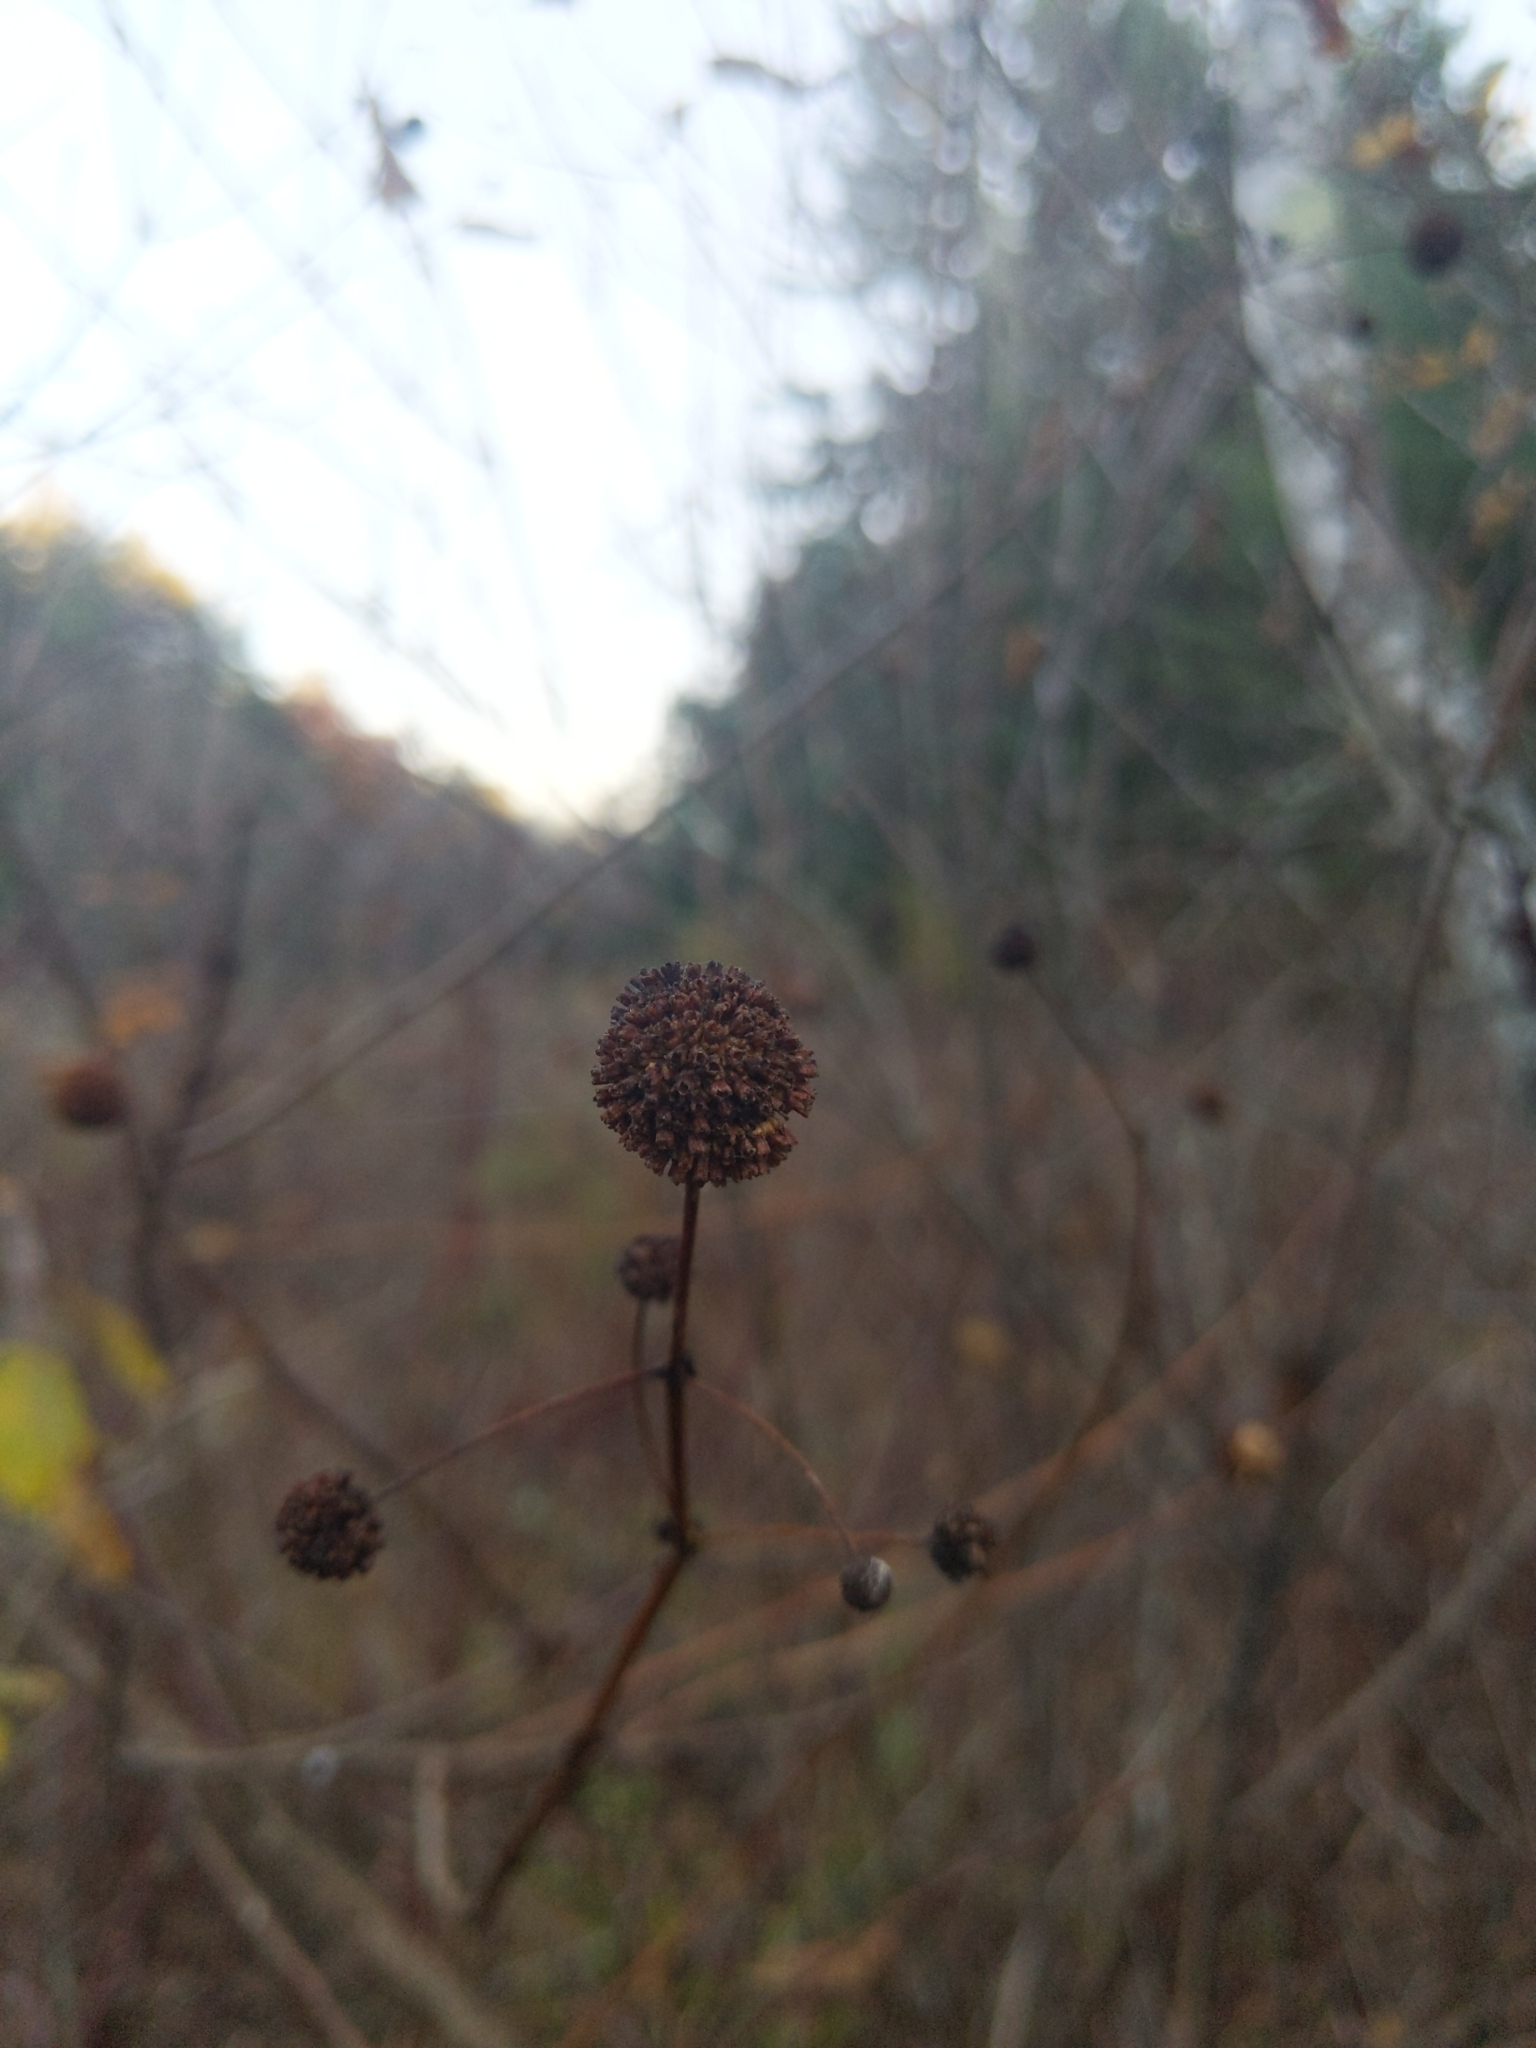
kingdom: Plantae
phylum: Tracheophyta
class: Magnoliopsida
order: Gentianales
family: Rubiaceae
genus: Cephalanthus
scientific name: Cephalanthus occidentalis
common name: Button-willow
